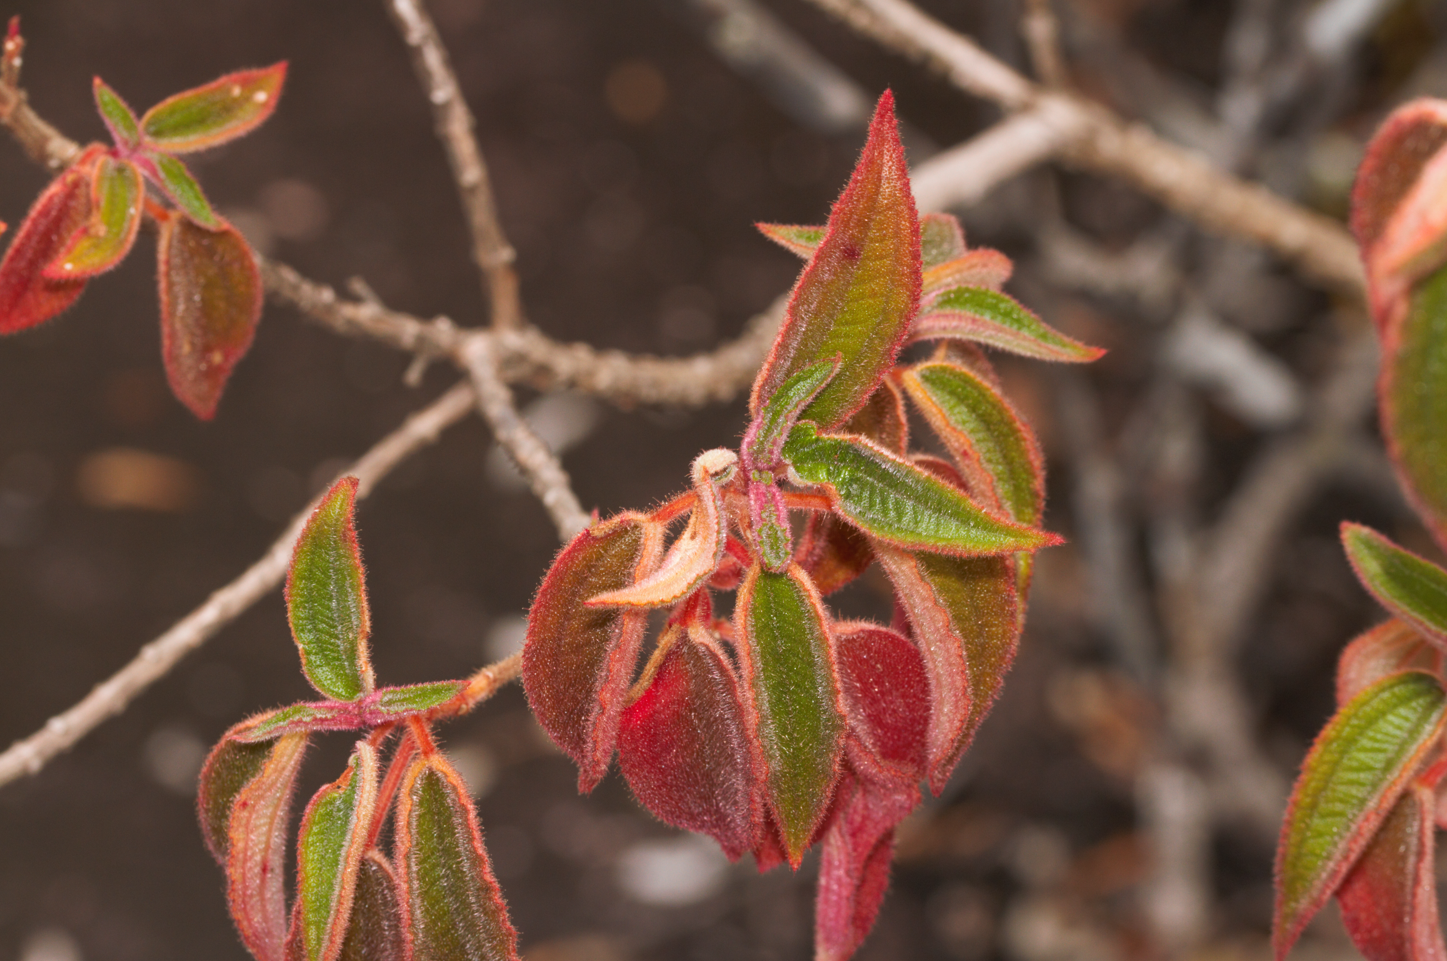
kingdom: Plantae
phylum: Tracheophyta
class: Magnoliopsida
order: Myrtales
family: Melastomataceae
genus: Ernestia
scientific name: Ernestia granvillei
